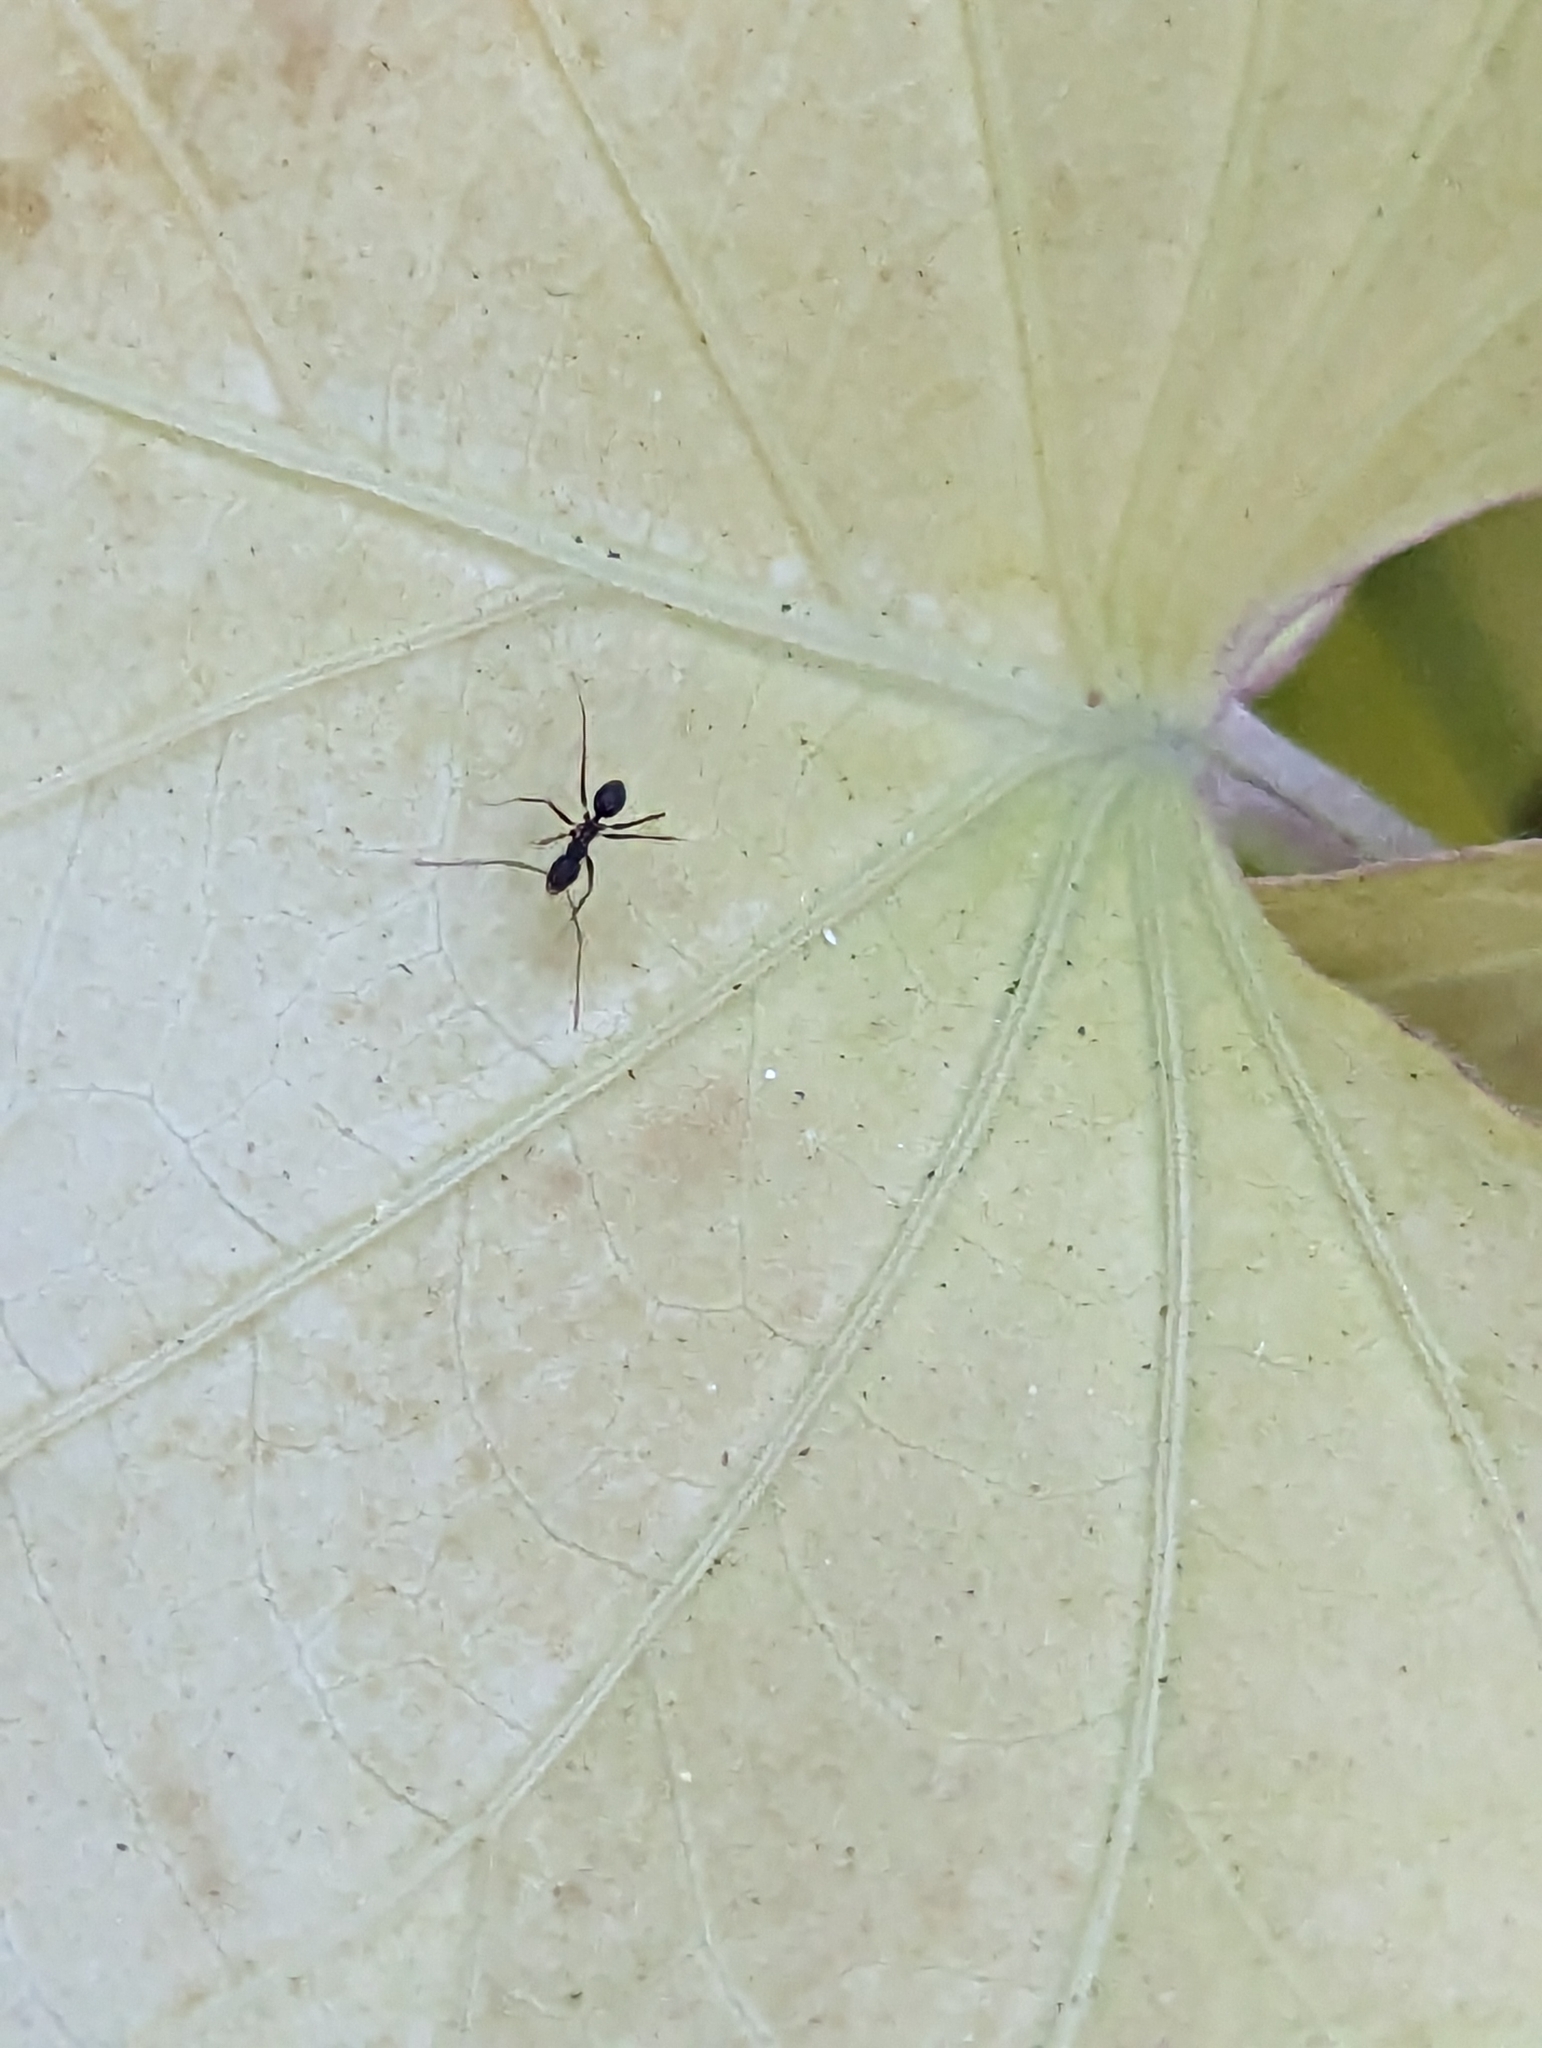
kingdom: Animalia
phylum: Arthropoda
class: Insecta
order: Hymenoptera
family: Formicidae
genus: Paratrechina
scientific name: Paratrechina longicornis
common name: Longhorned crazy ant
